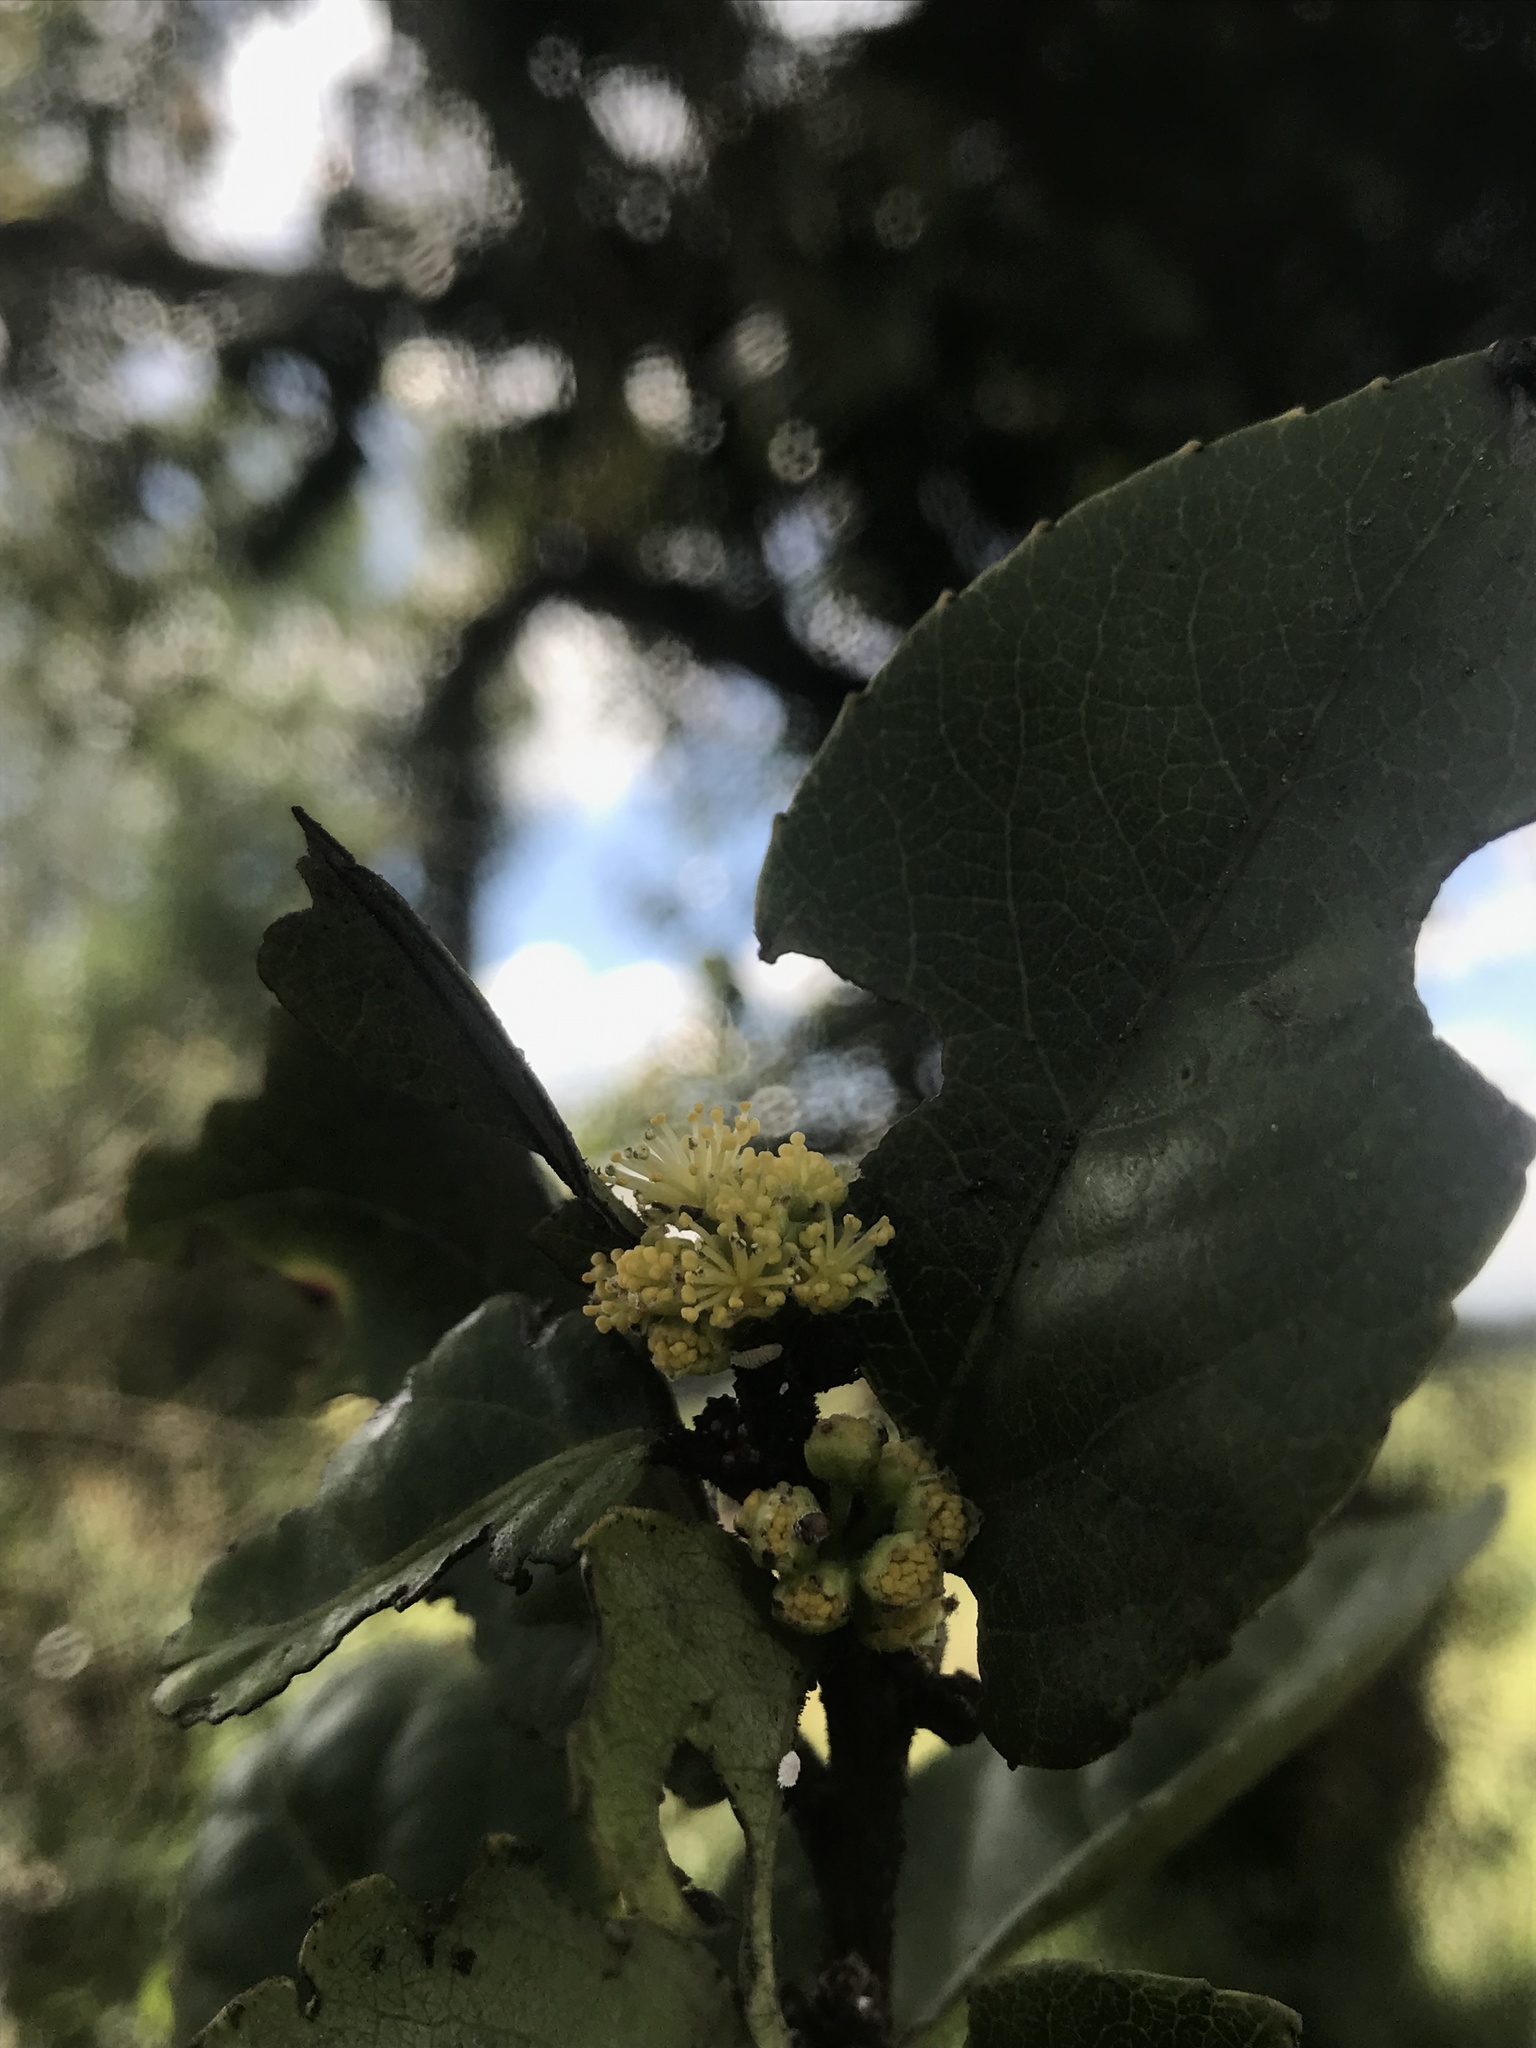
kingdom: Plantae
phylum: Tracheophyta
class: Magnoliopsida
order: Malpighiales
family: Salicaceae
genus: Xylosma
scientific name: Xylosma spiculifera
